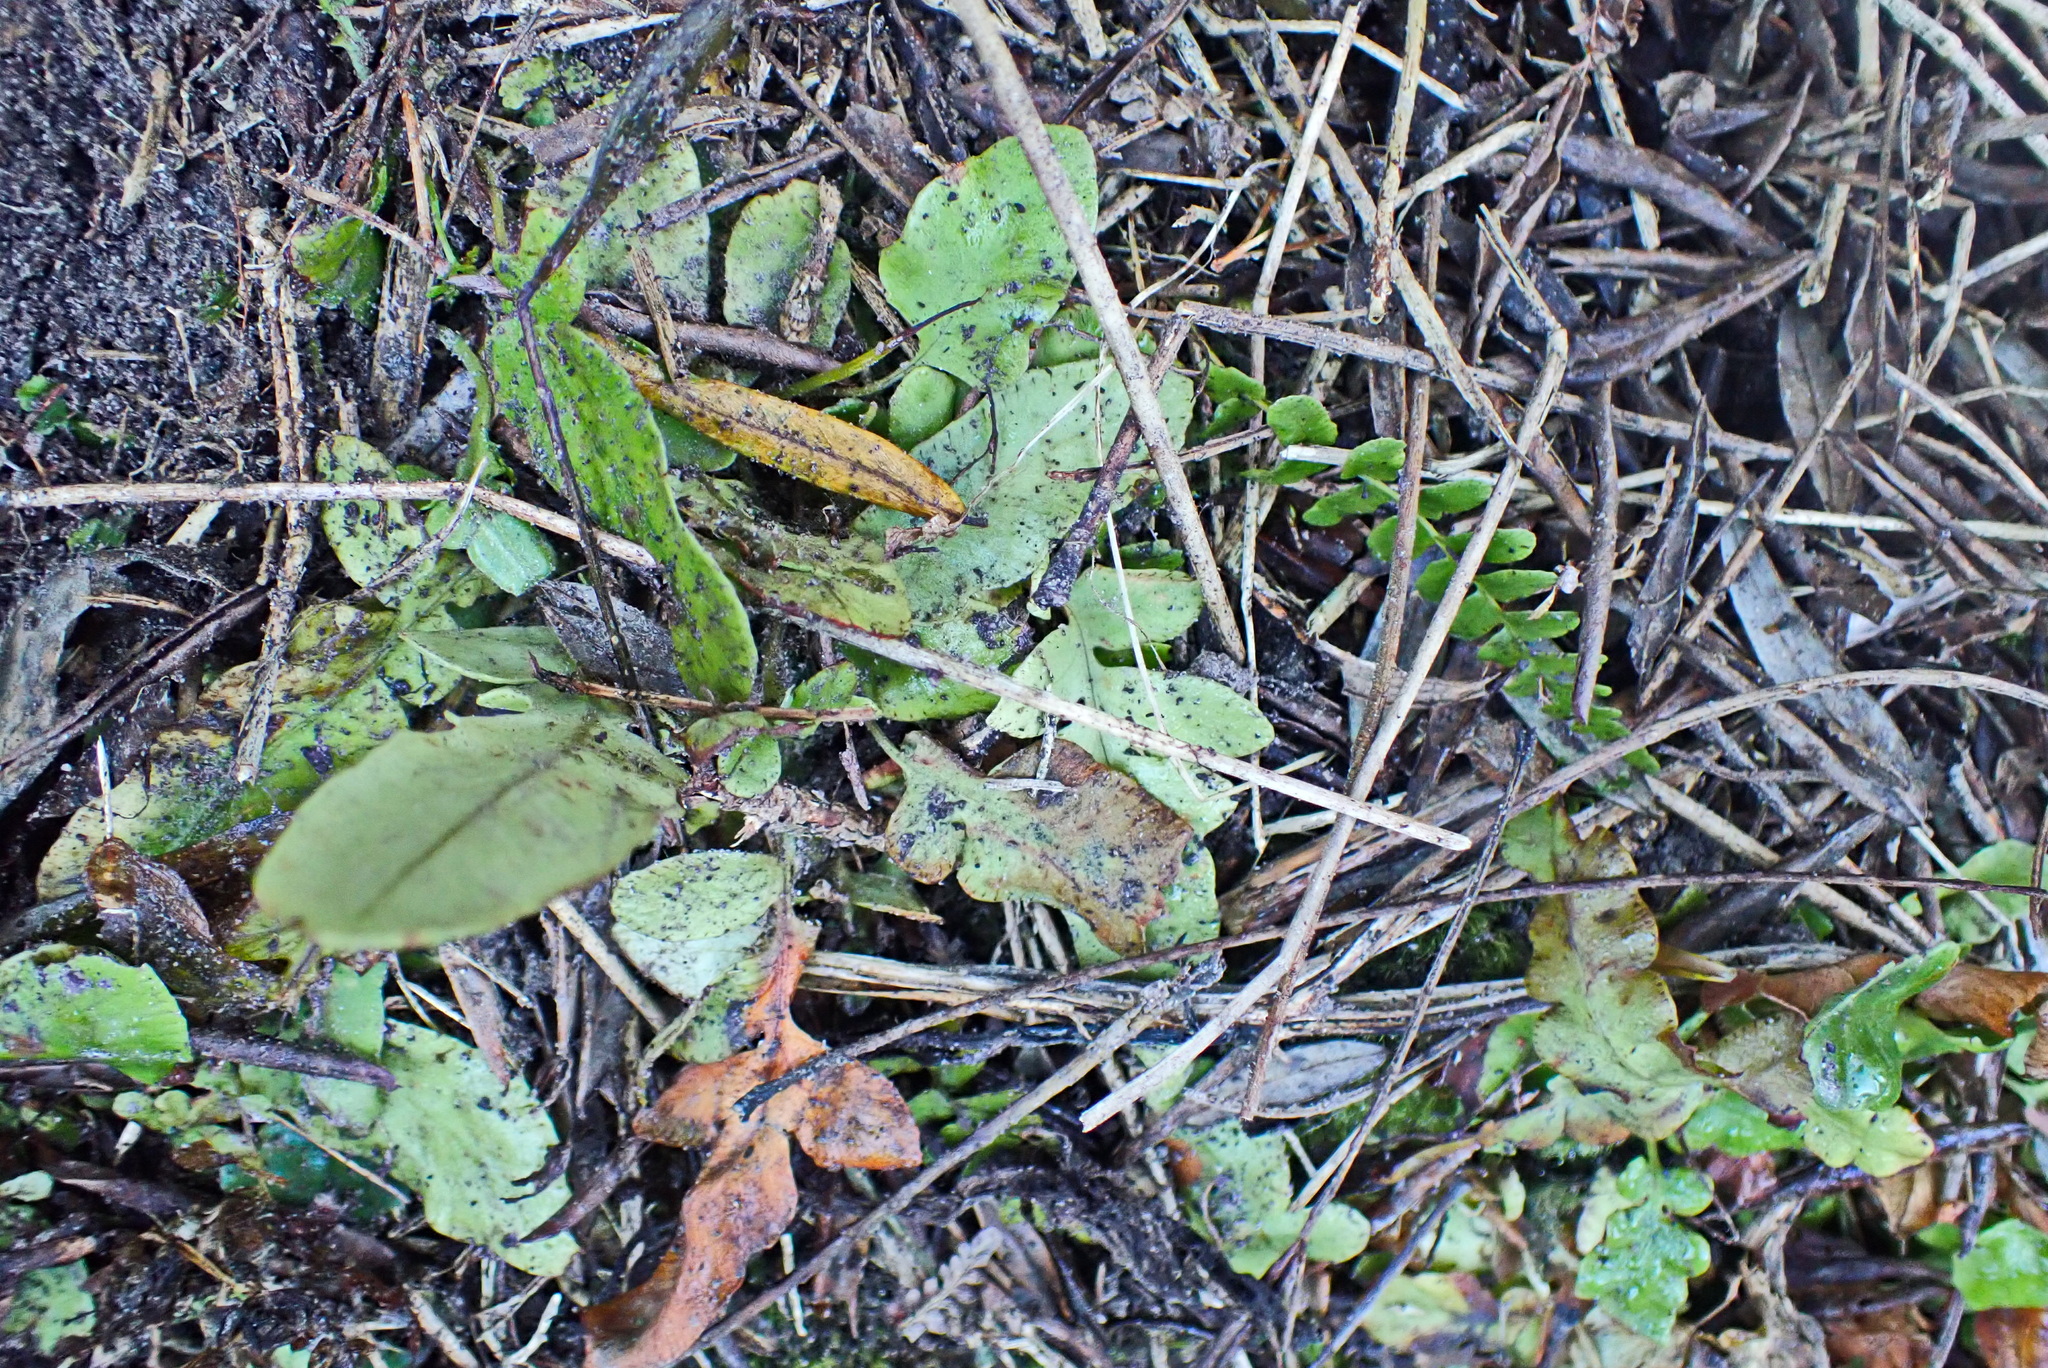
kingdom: Plantae
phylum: Tracheophyta
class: Polypodiopsida
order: Polypodiales
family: Blechnaceae
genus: Lomariocycas
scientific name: Lomariocycas tabularis
